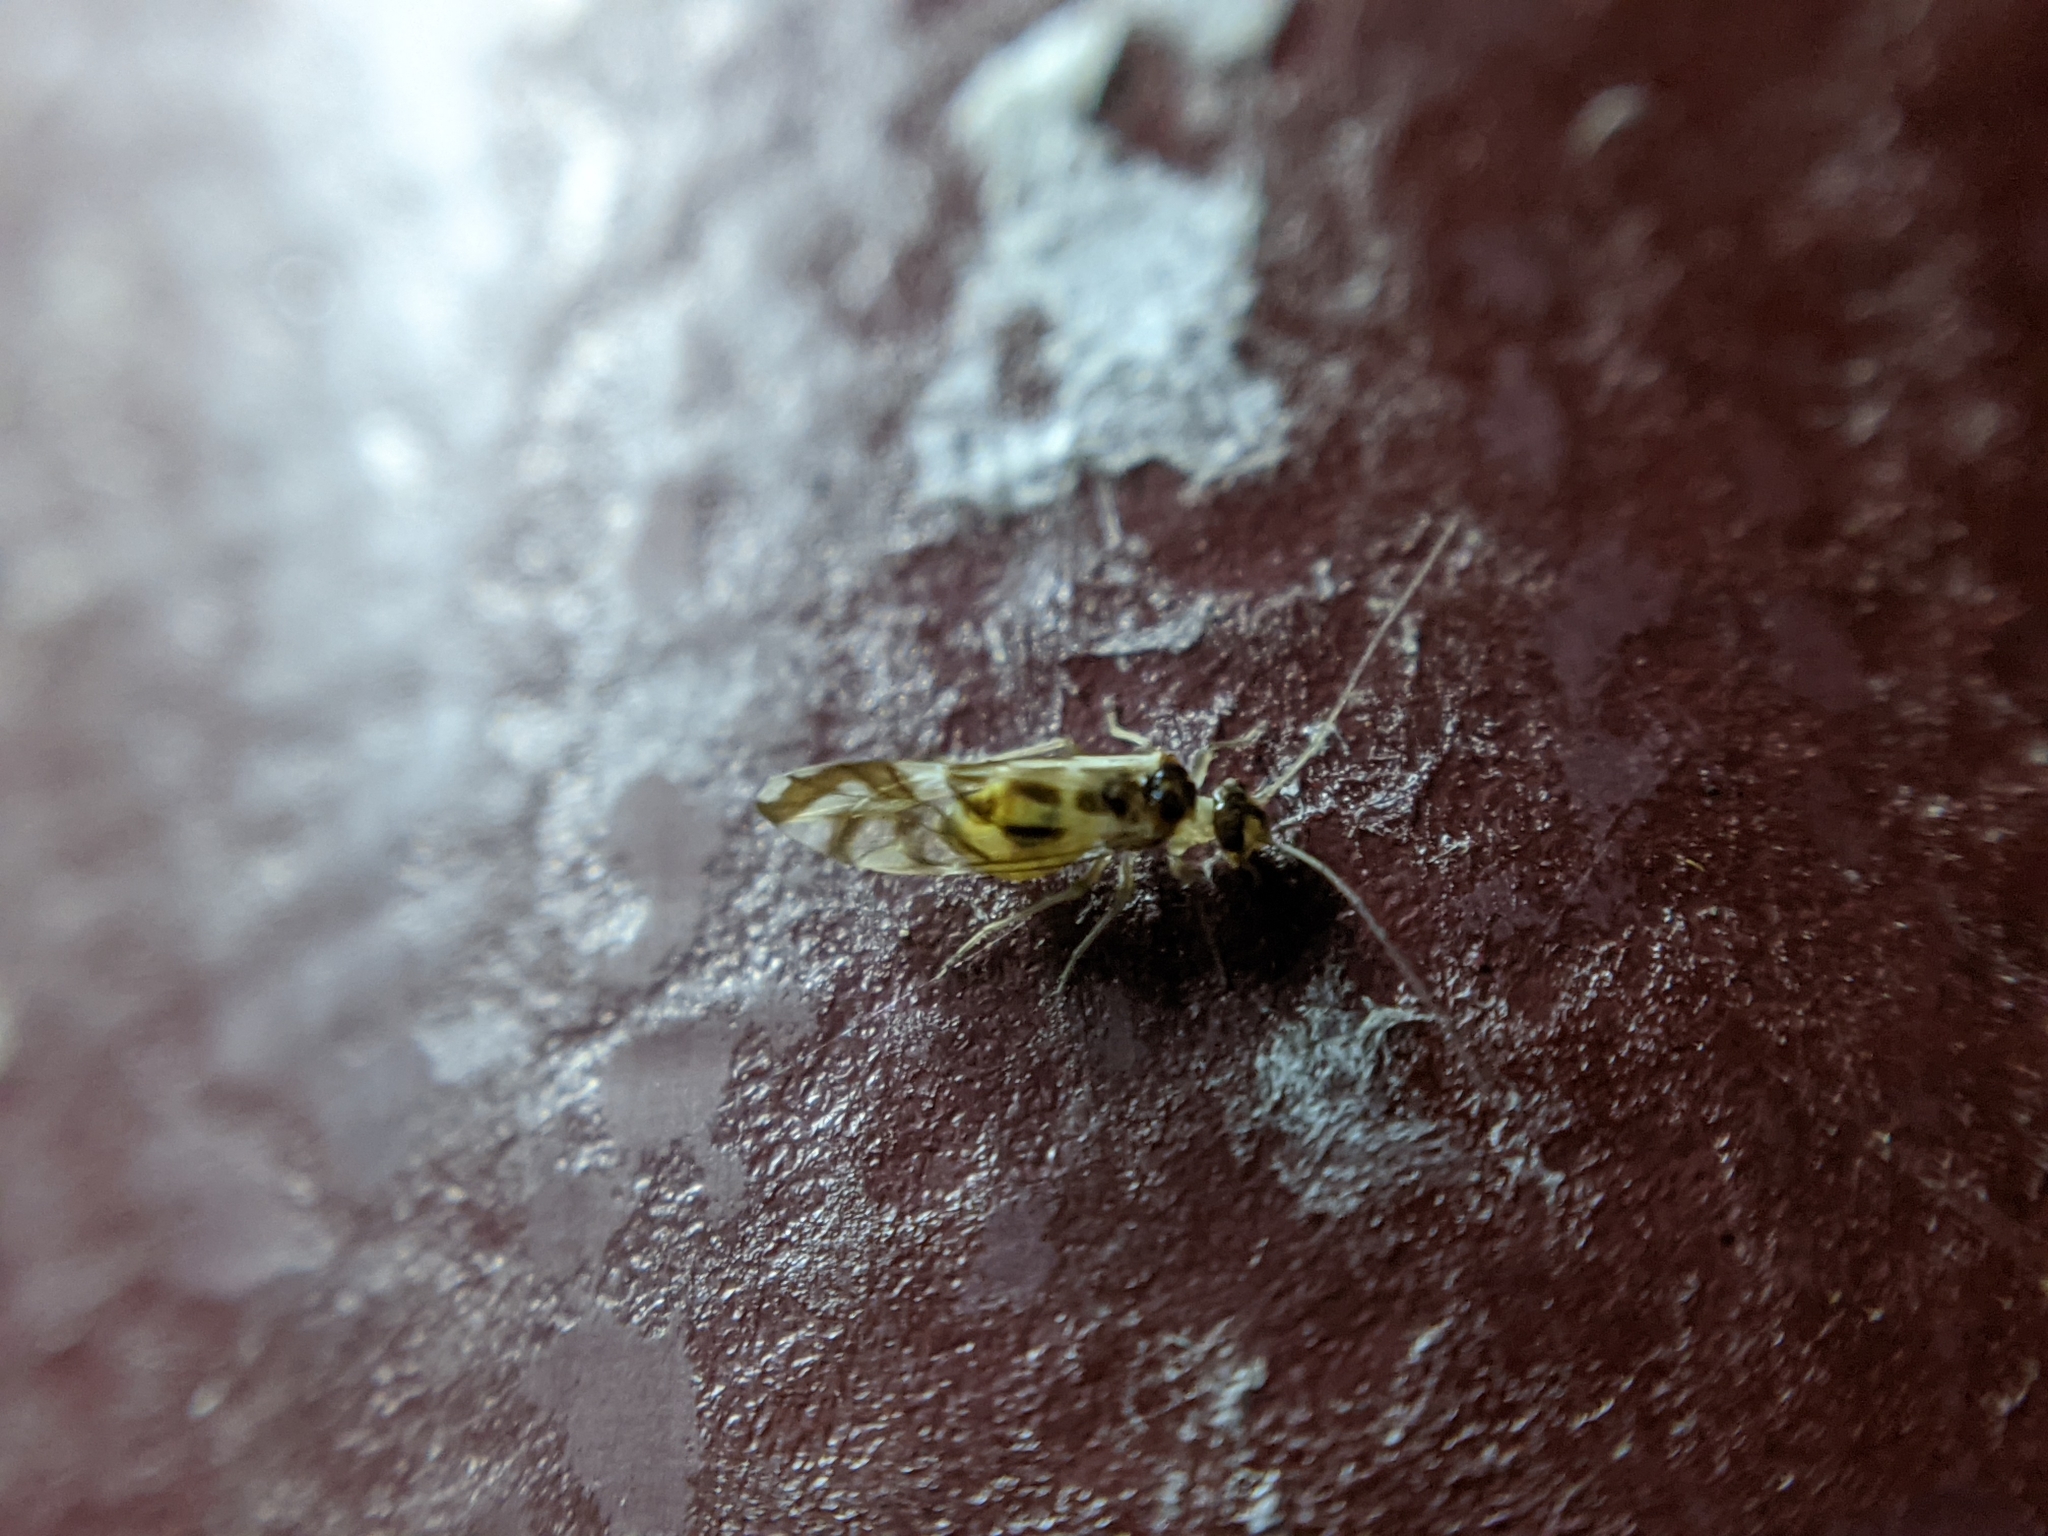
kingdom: Animalia
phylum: Arthropoda
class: Insecta
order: Psocodea
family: Stenopsocidae
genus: Graphopsocus
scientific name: Graphopsocus cruciatus
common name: Lizard bark louse
